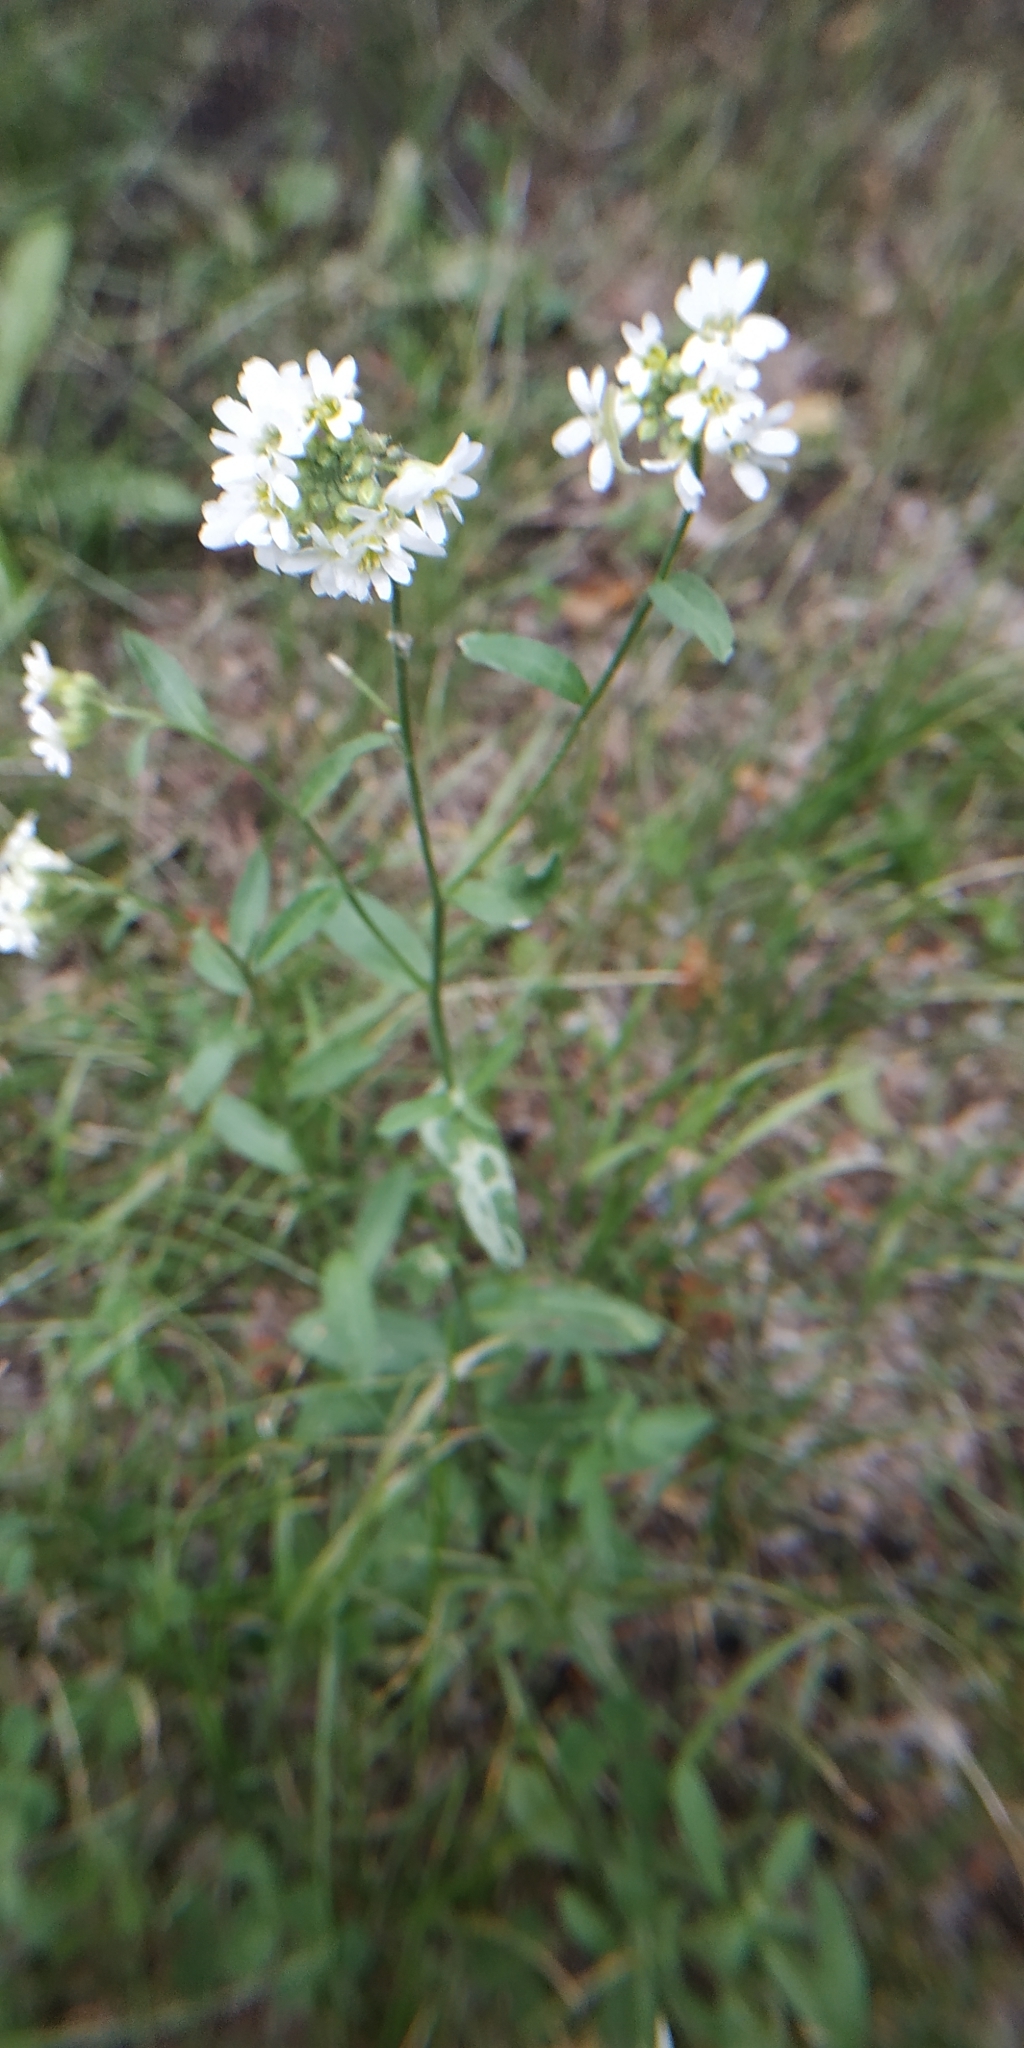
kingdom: Plantae
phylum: Tracheophyta
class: Magnoliopsida
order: Brassicales
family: Brassicaceae
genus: Berteroa
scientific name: Berteroa incana
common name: Hoary alison
